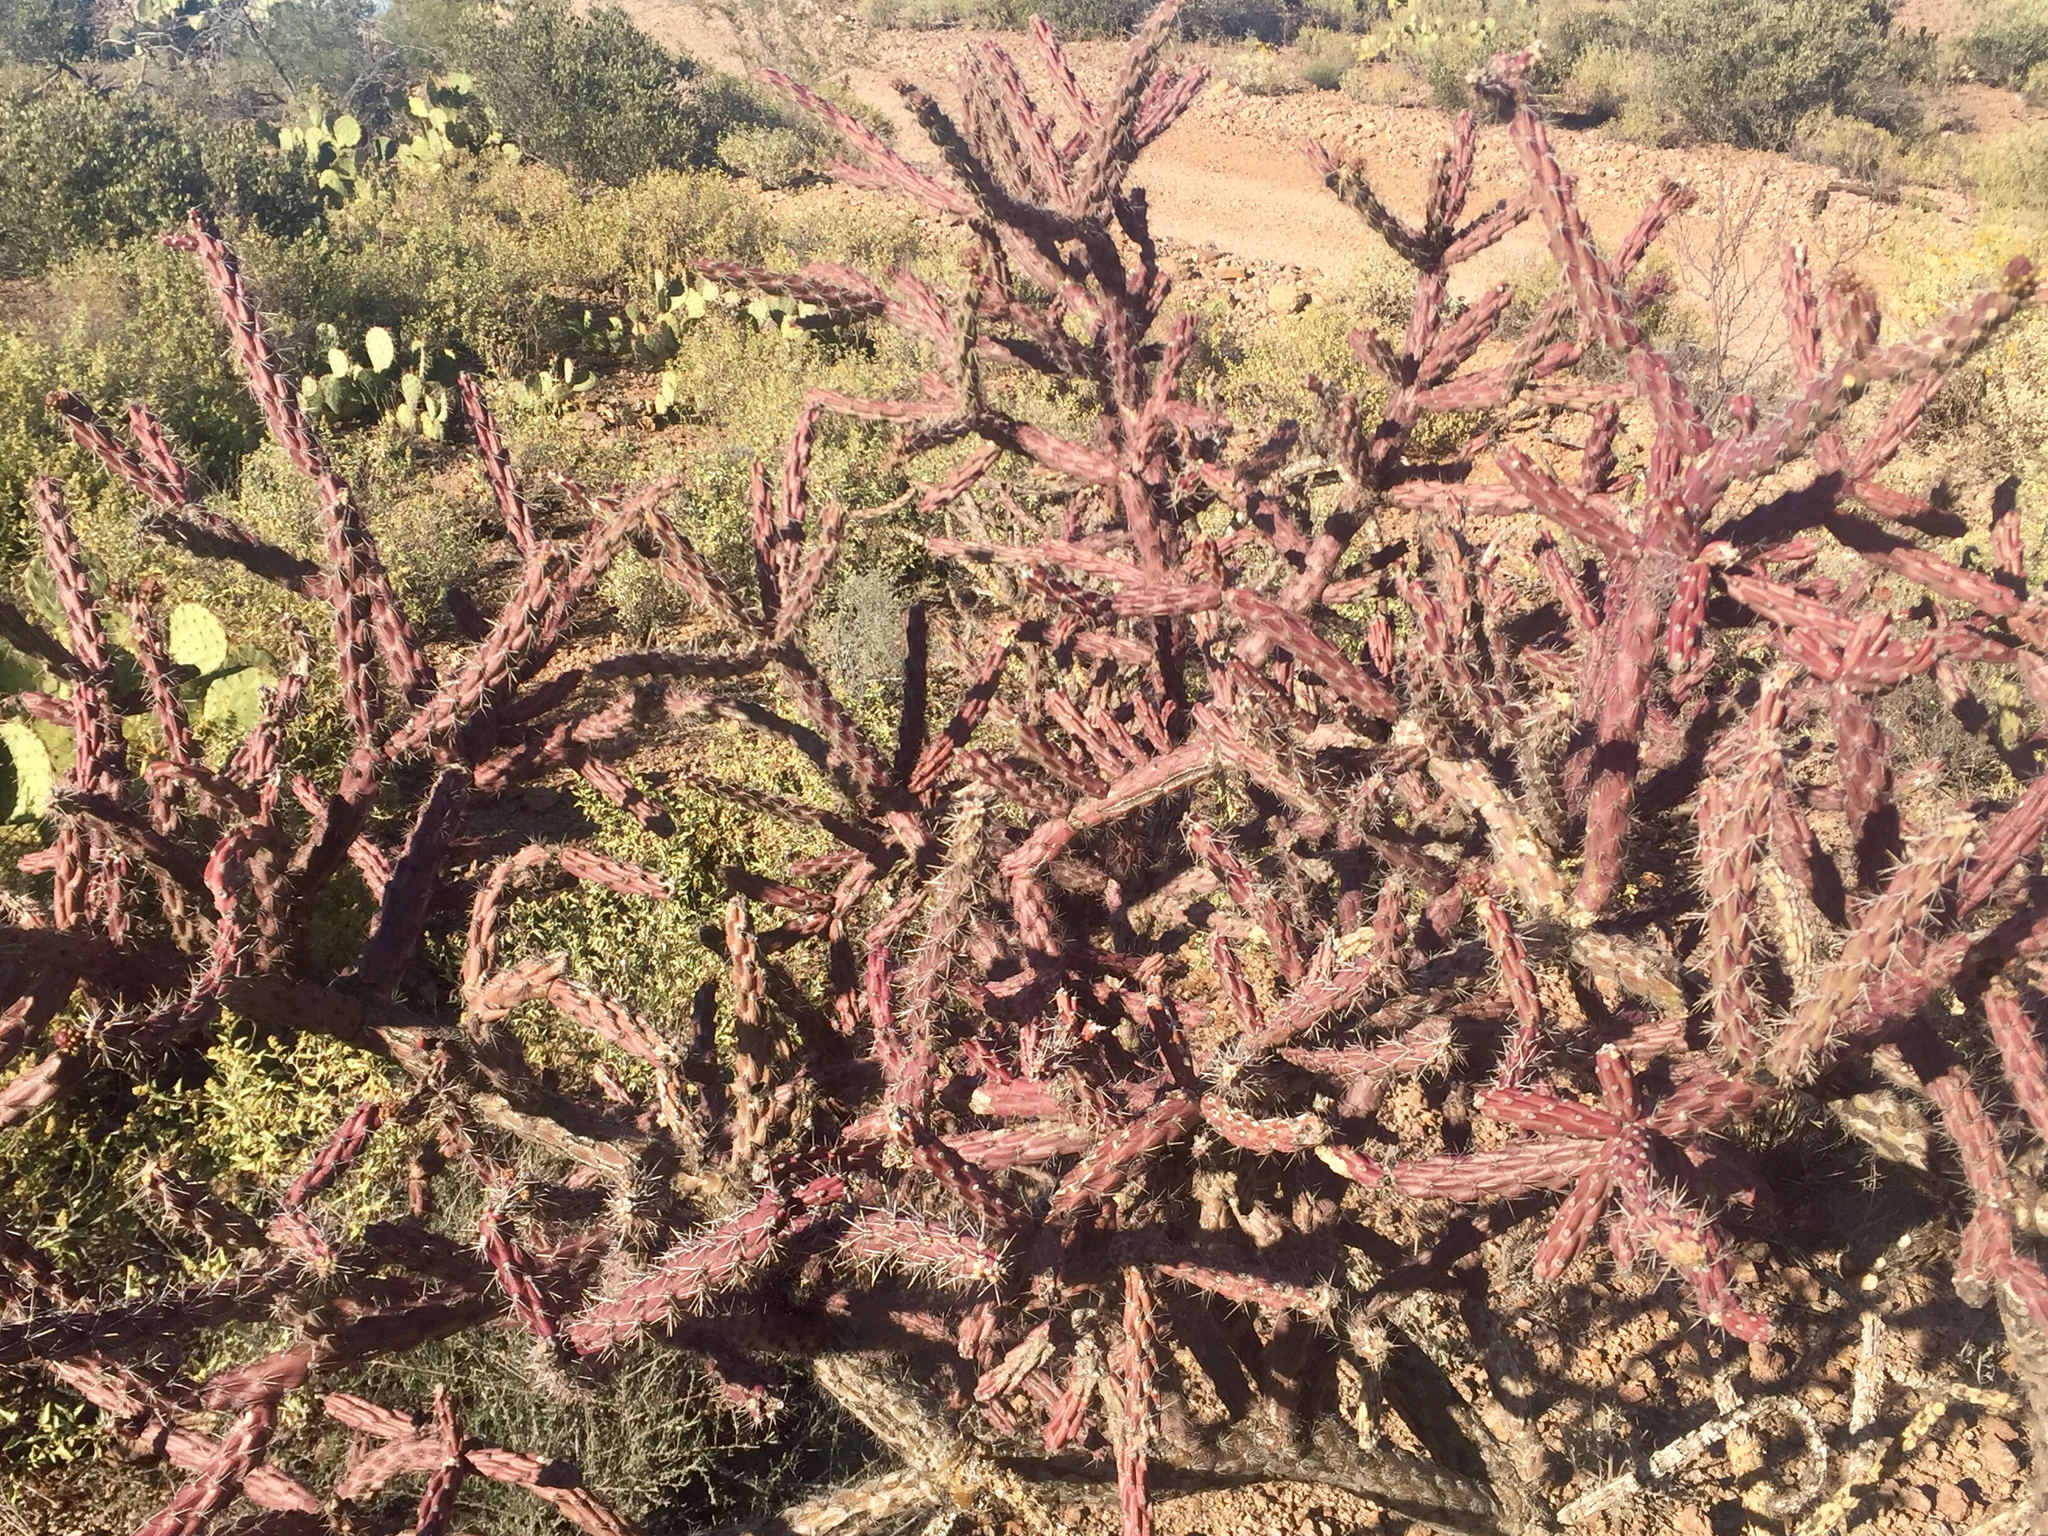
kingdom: Plantae
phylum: Tracheophyta
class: Magnoliopsida
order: Caryophyllales
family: Cactaceae
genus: Cylindropuntia
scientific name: Cylindropuntia thurberi
